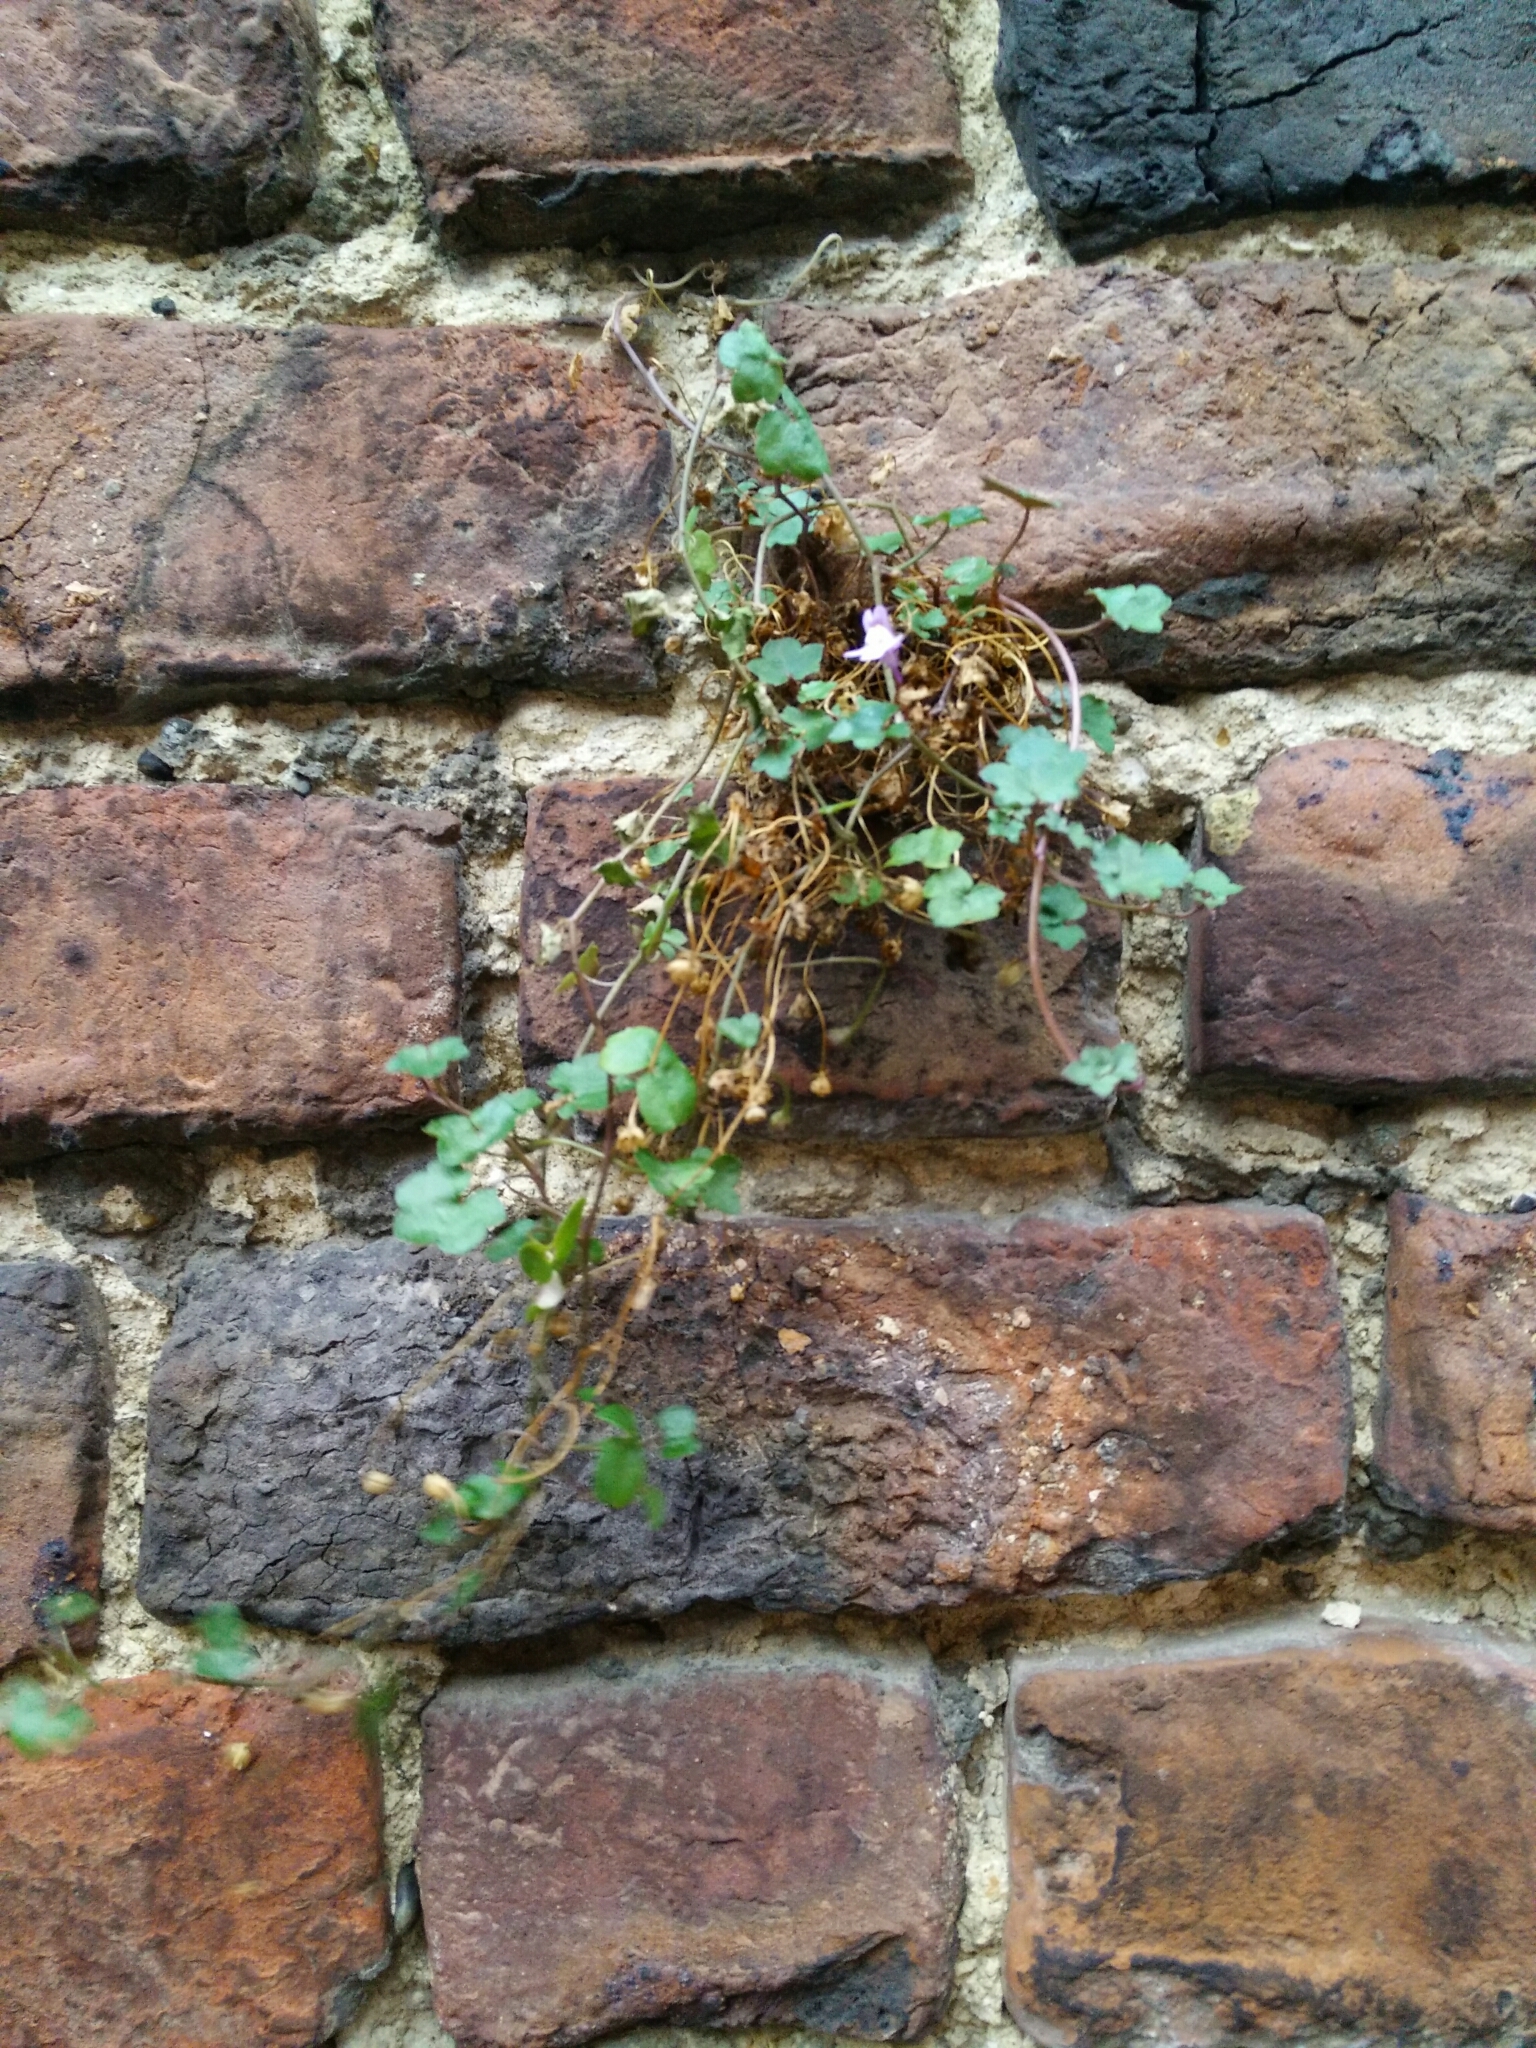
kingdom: Plantae
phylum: Tracheophyta
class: Magnoliopsida
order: Lamiales
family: Plantaginaceae
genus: Cymbalaria
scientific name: Cymbalaria muralis
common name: Ivy-leaved toadflax
